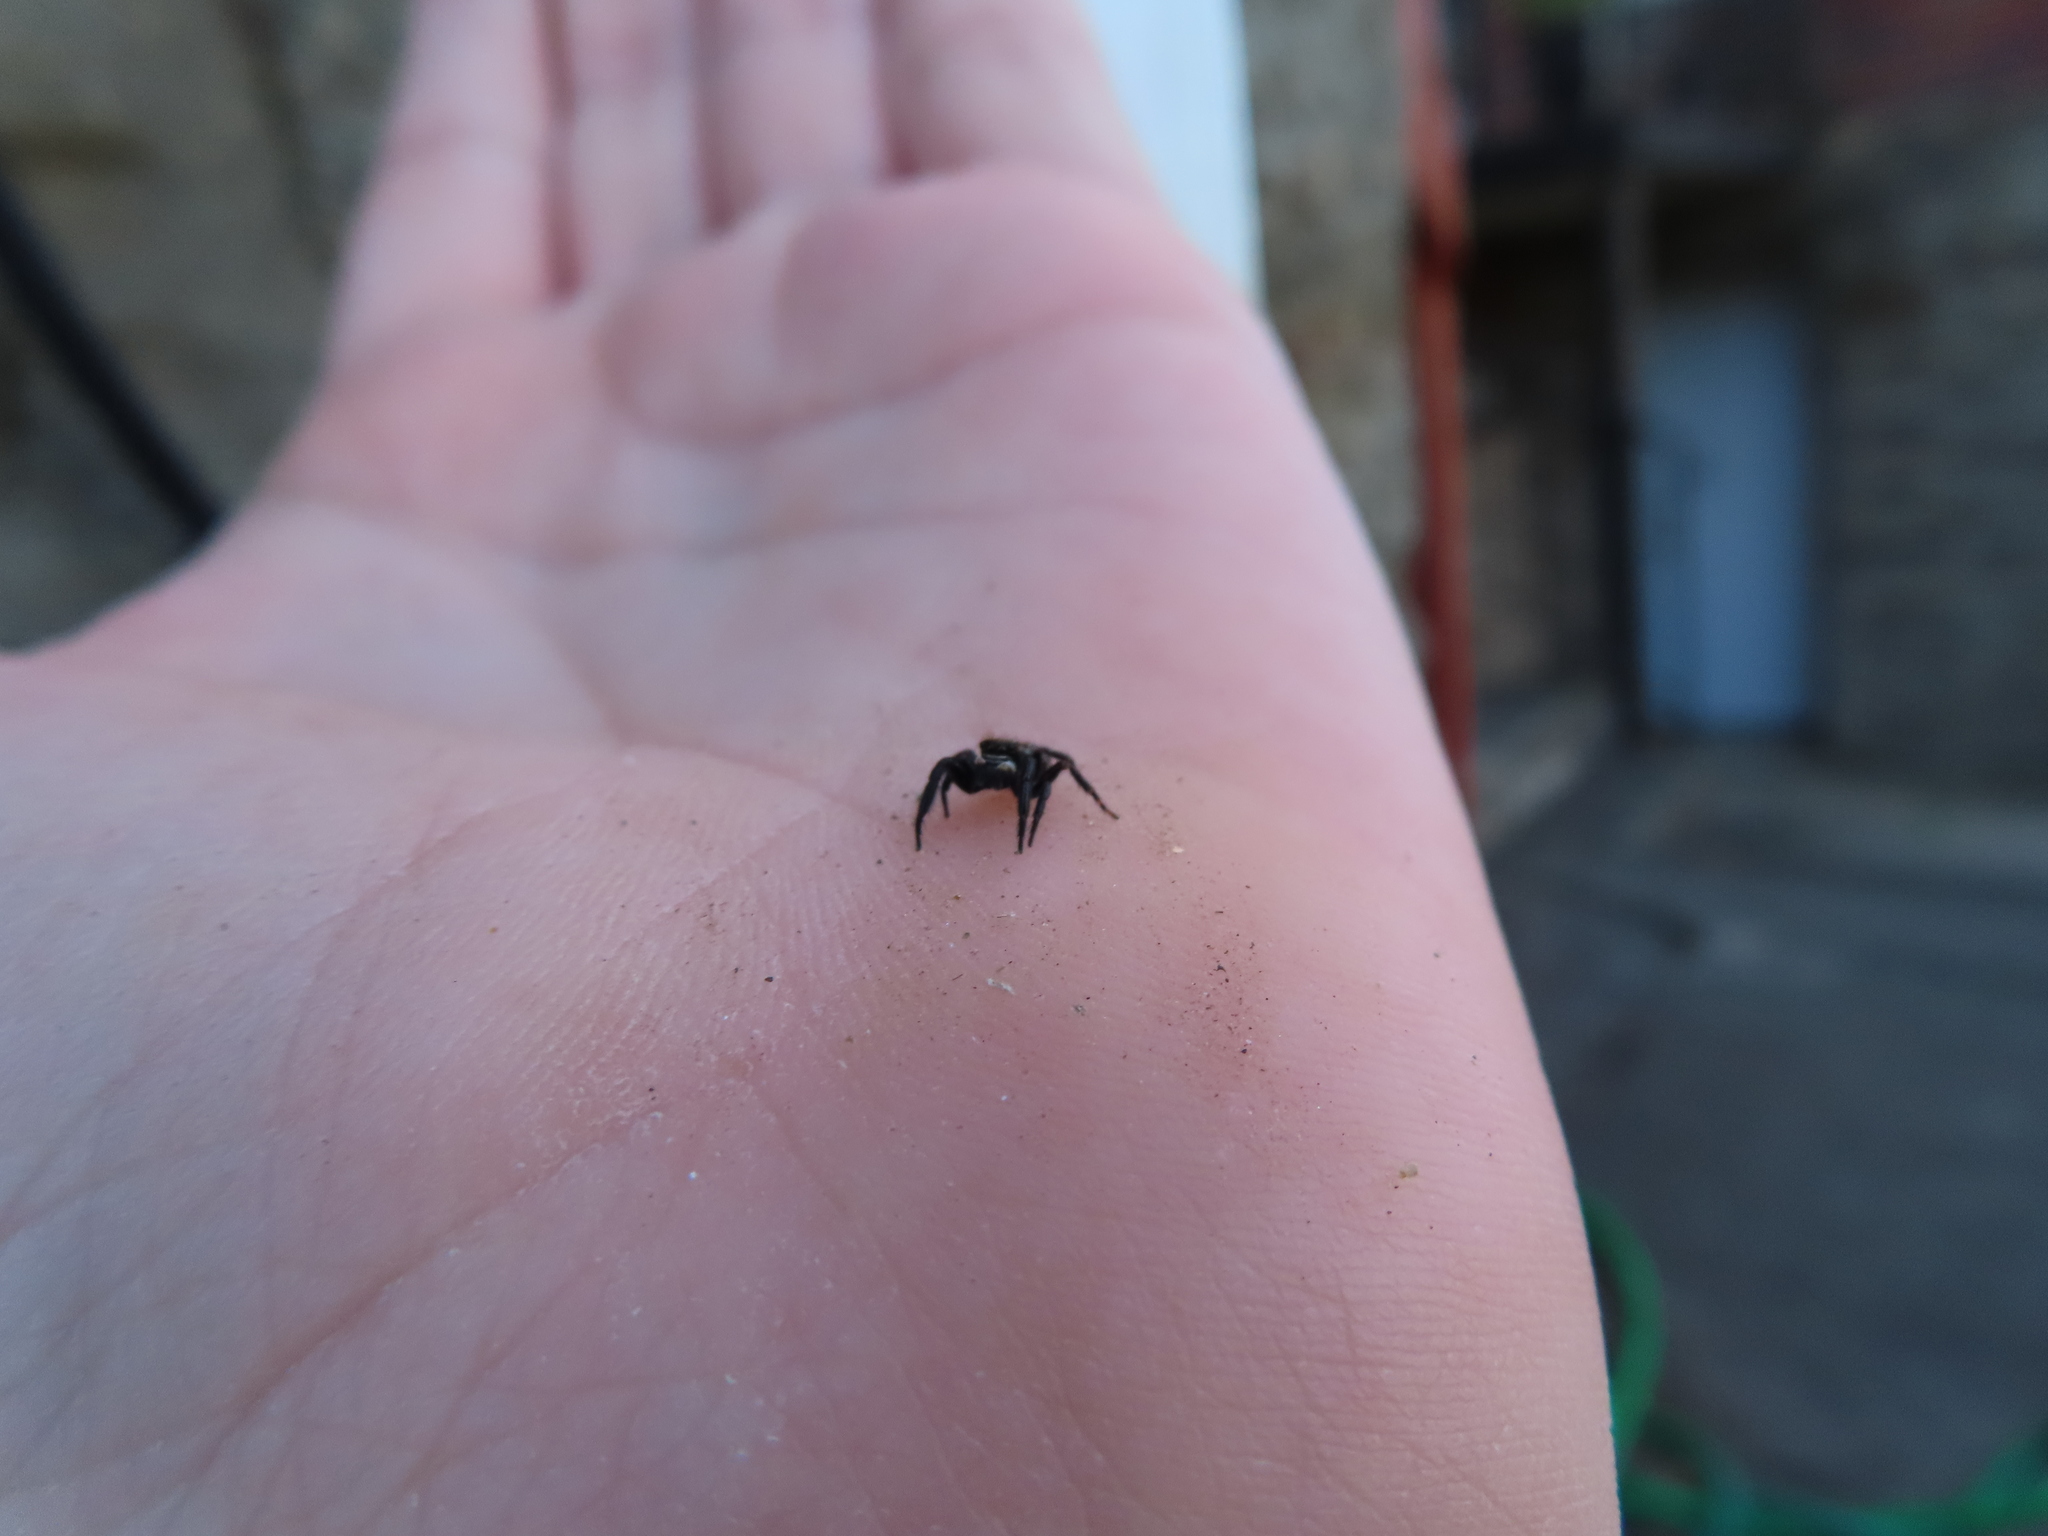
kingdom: Animalia
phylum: Arthropoda
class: Arachnida
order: Araneae
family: Salticidae
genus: Pseudeuophrys
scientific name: Pseudeuophrys erratica
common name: Jumping spider
